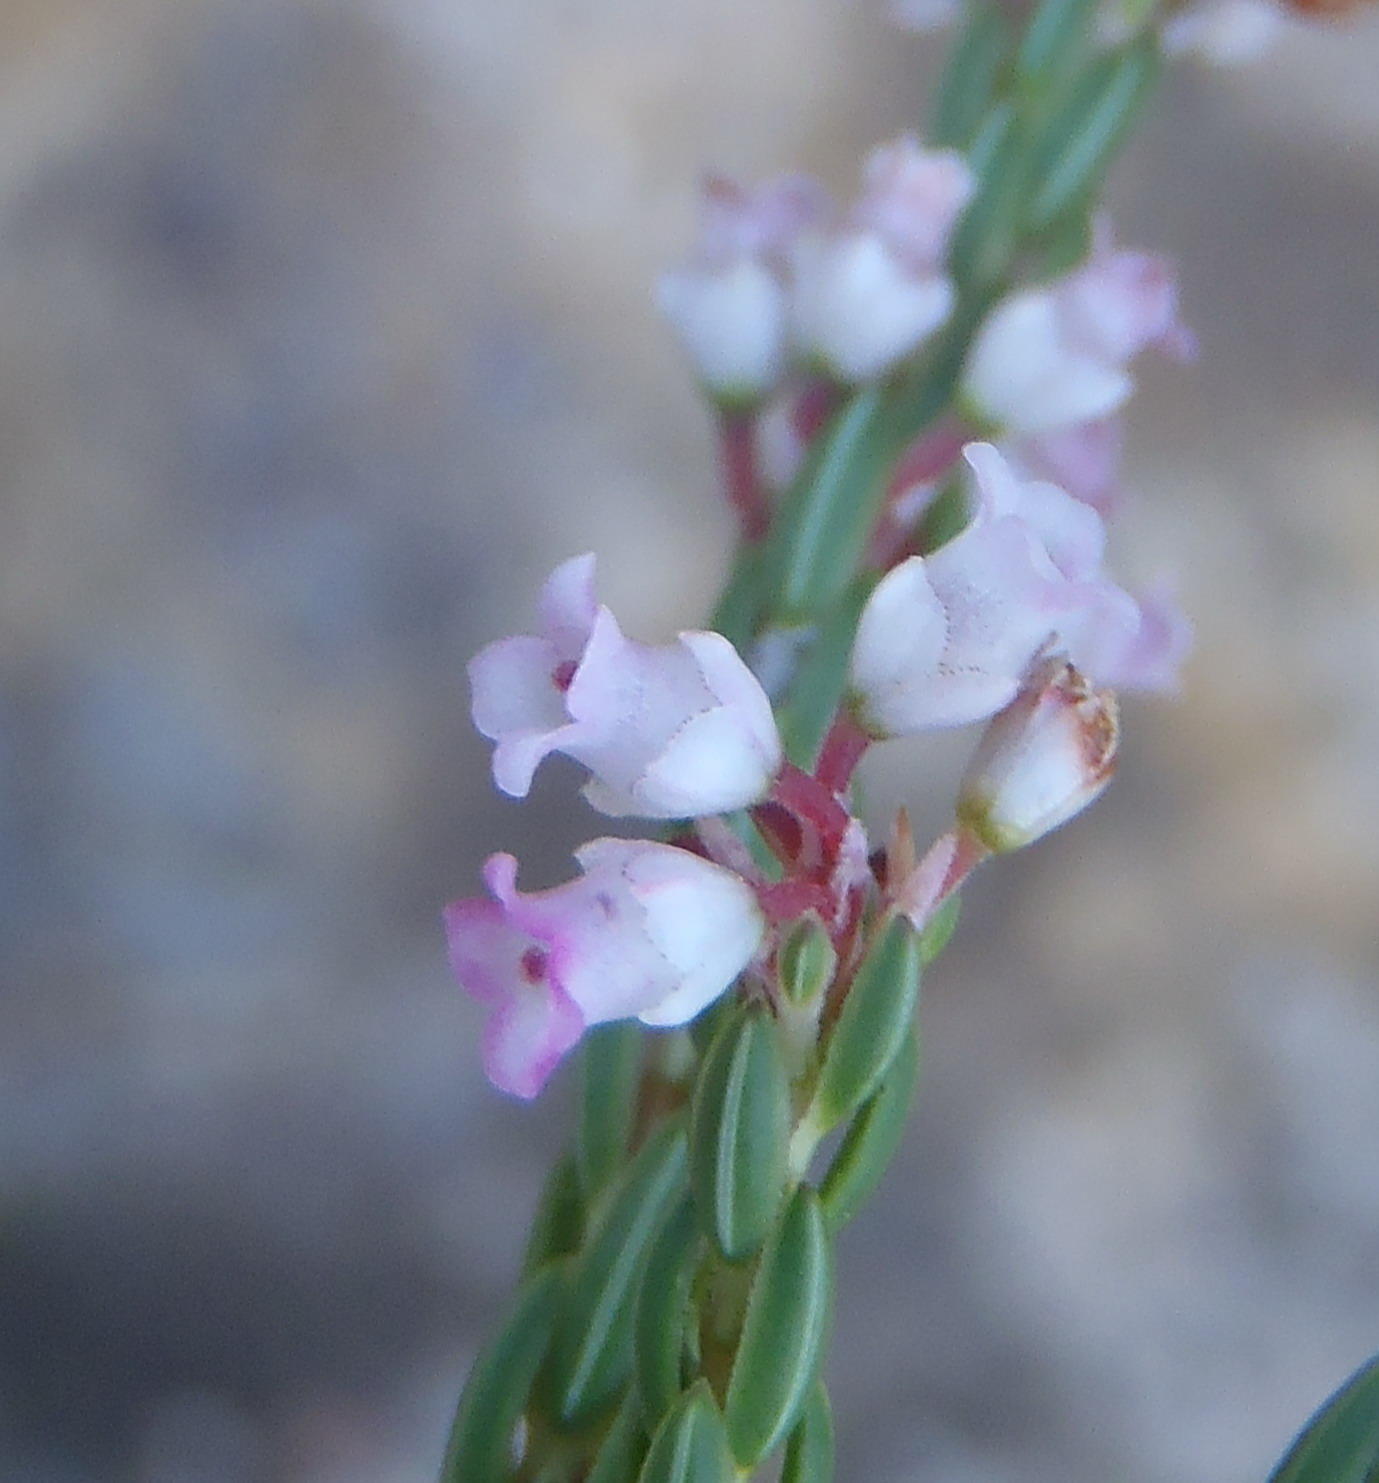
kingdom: Plantae
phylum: Tracheophyta
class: Magnoliopsida
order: Ericales
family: Ericaceae
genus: Erica
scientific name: Erica articularis
